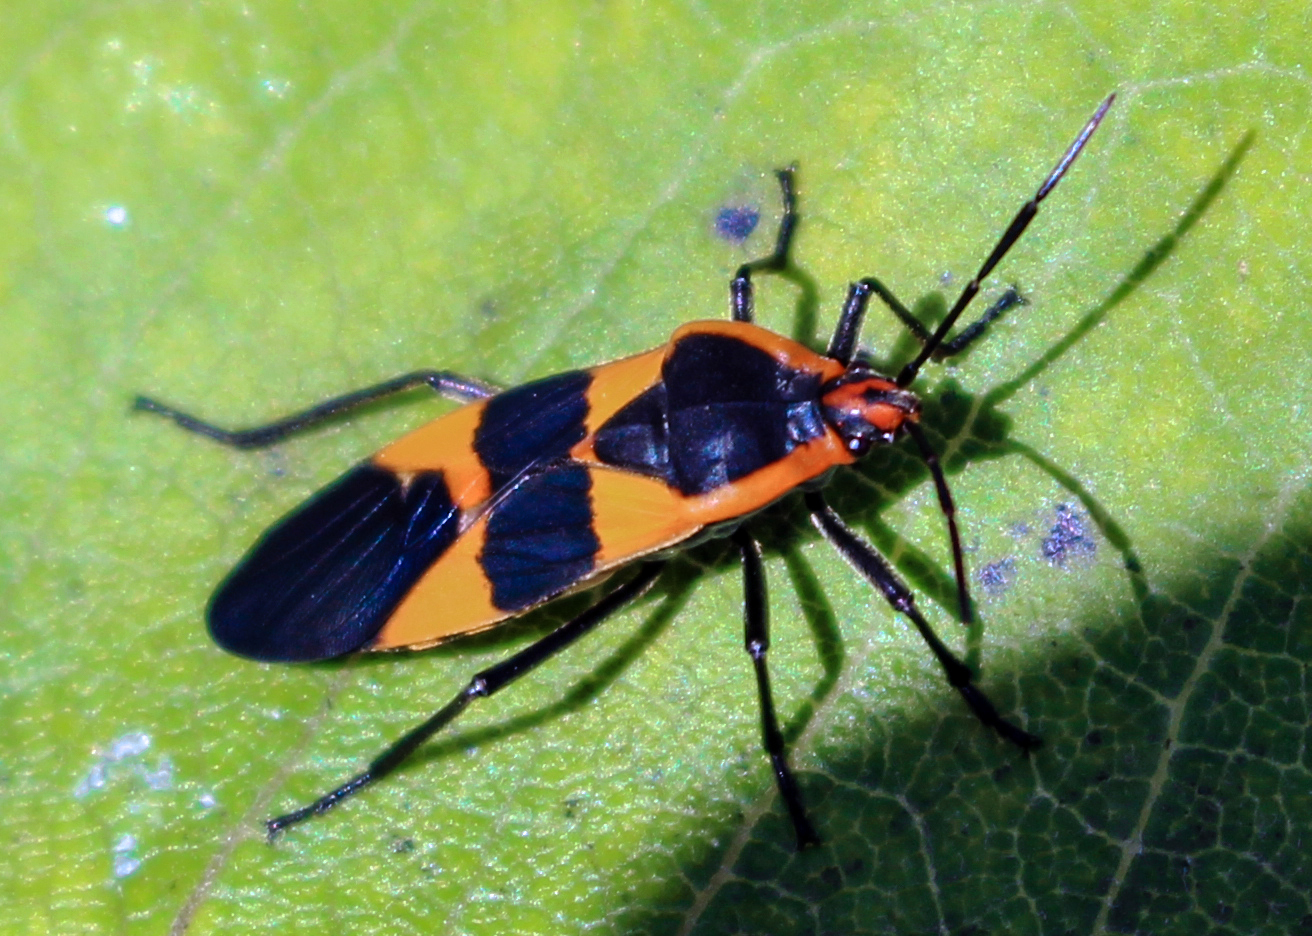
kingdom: Animalia
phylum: Arthropoda
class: Insecta
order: Hemiptera
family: Lygaeidae
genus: Oncopeltus
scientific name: Oncopeltus fasciatus
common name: Large milkweed bug
